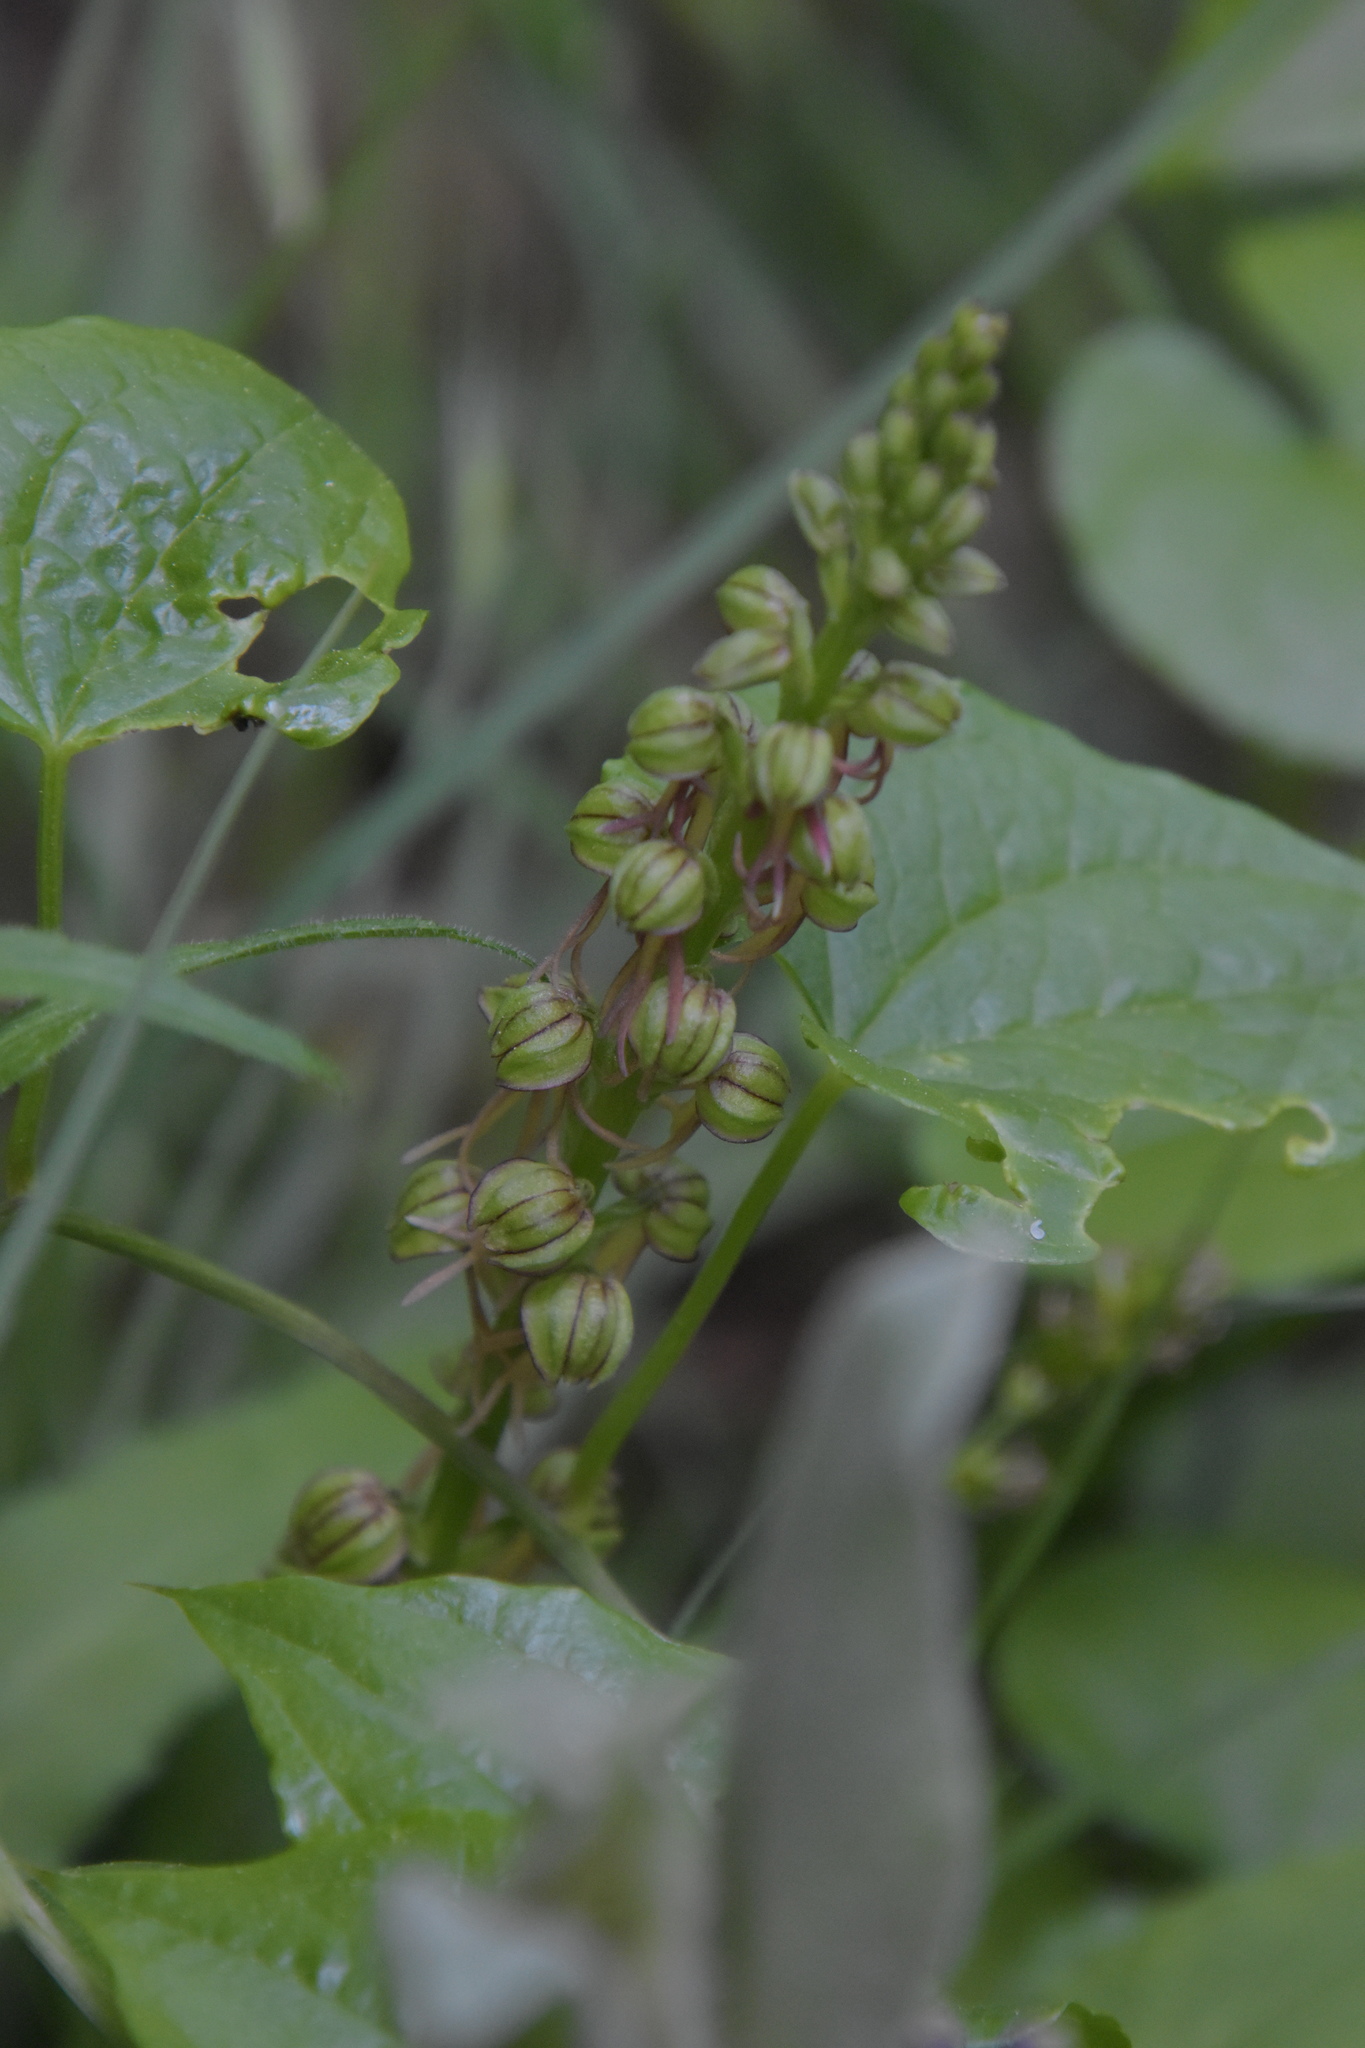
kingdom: Plantae
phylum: Tracheophyta
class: Liliopsida
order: Asparagales
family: Orchidaceae
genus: Orchis
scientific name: Orchis anthropophora
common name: Man orchid
